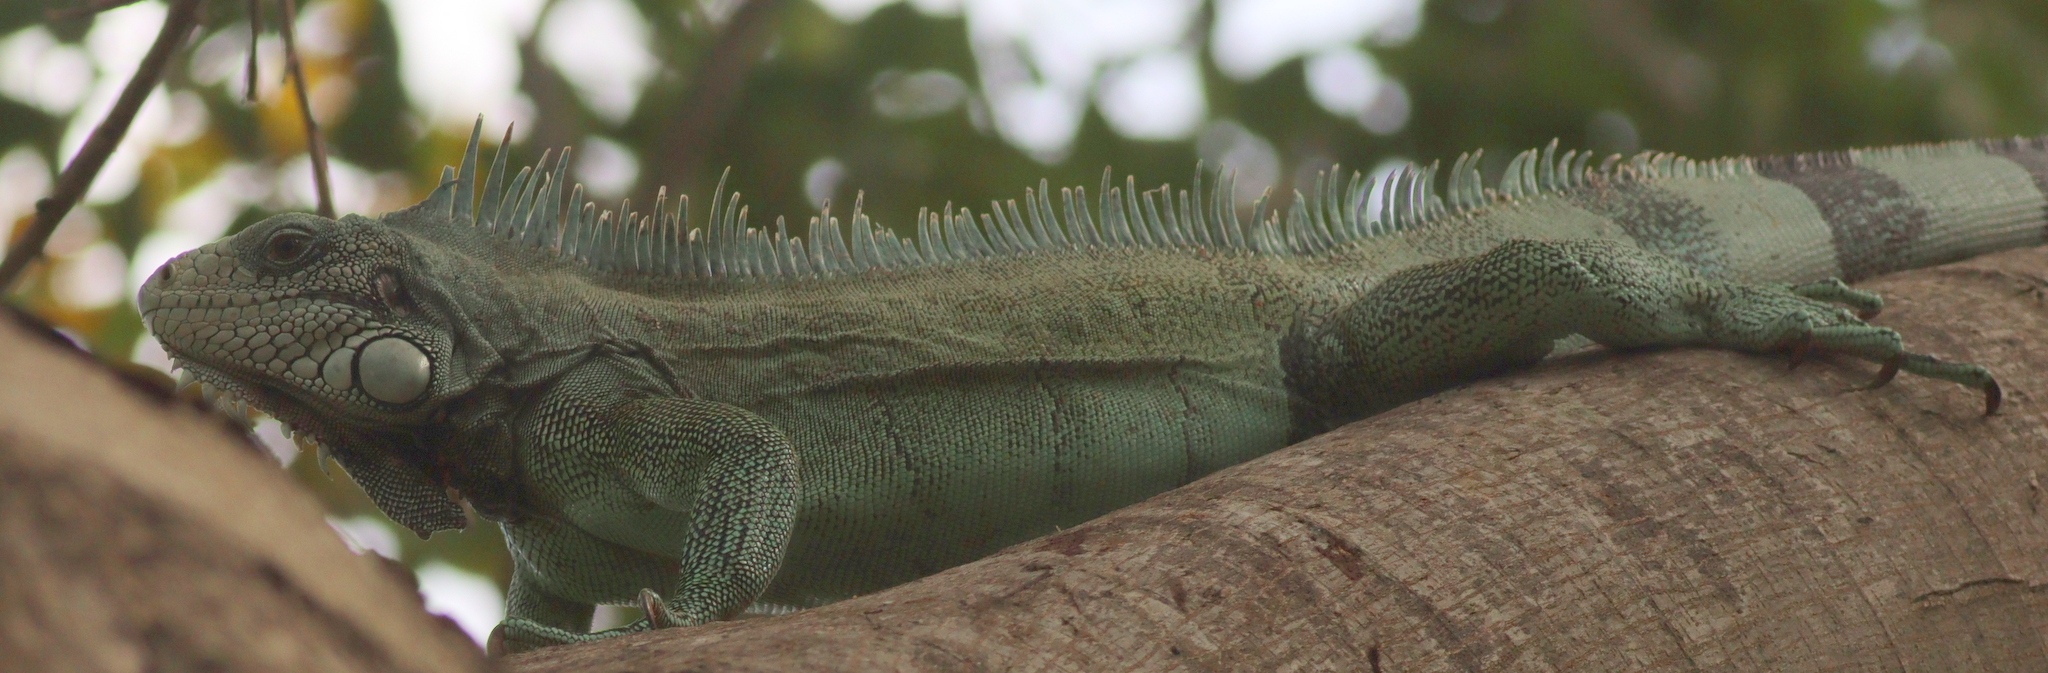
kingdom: Animalia
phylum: Chordata
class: Squamata
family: Iguanidae
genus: Iguana
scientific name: Iguana iguana
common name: Green iguana
